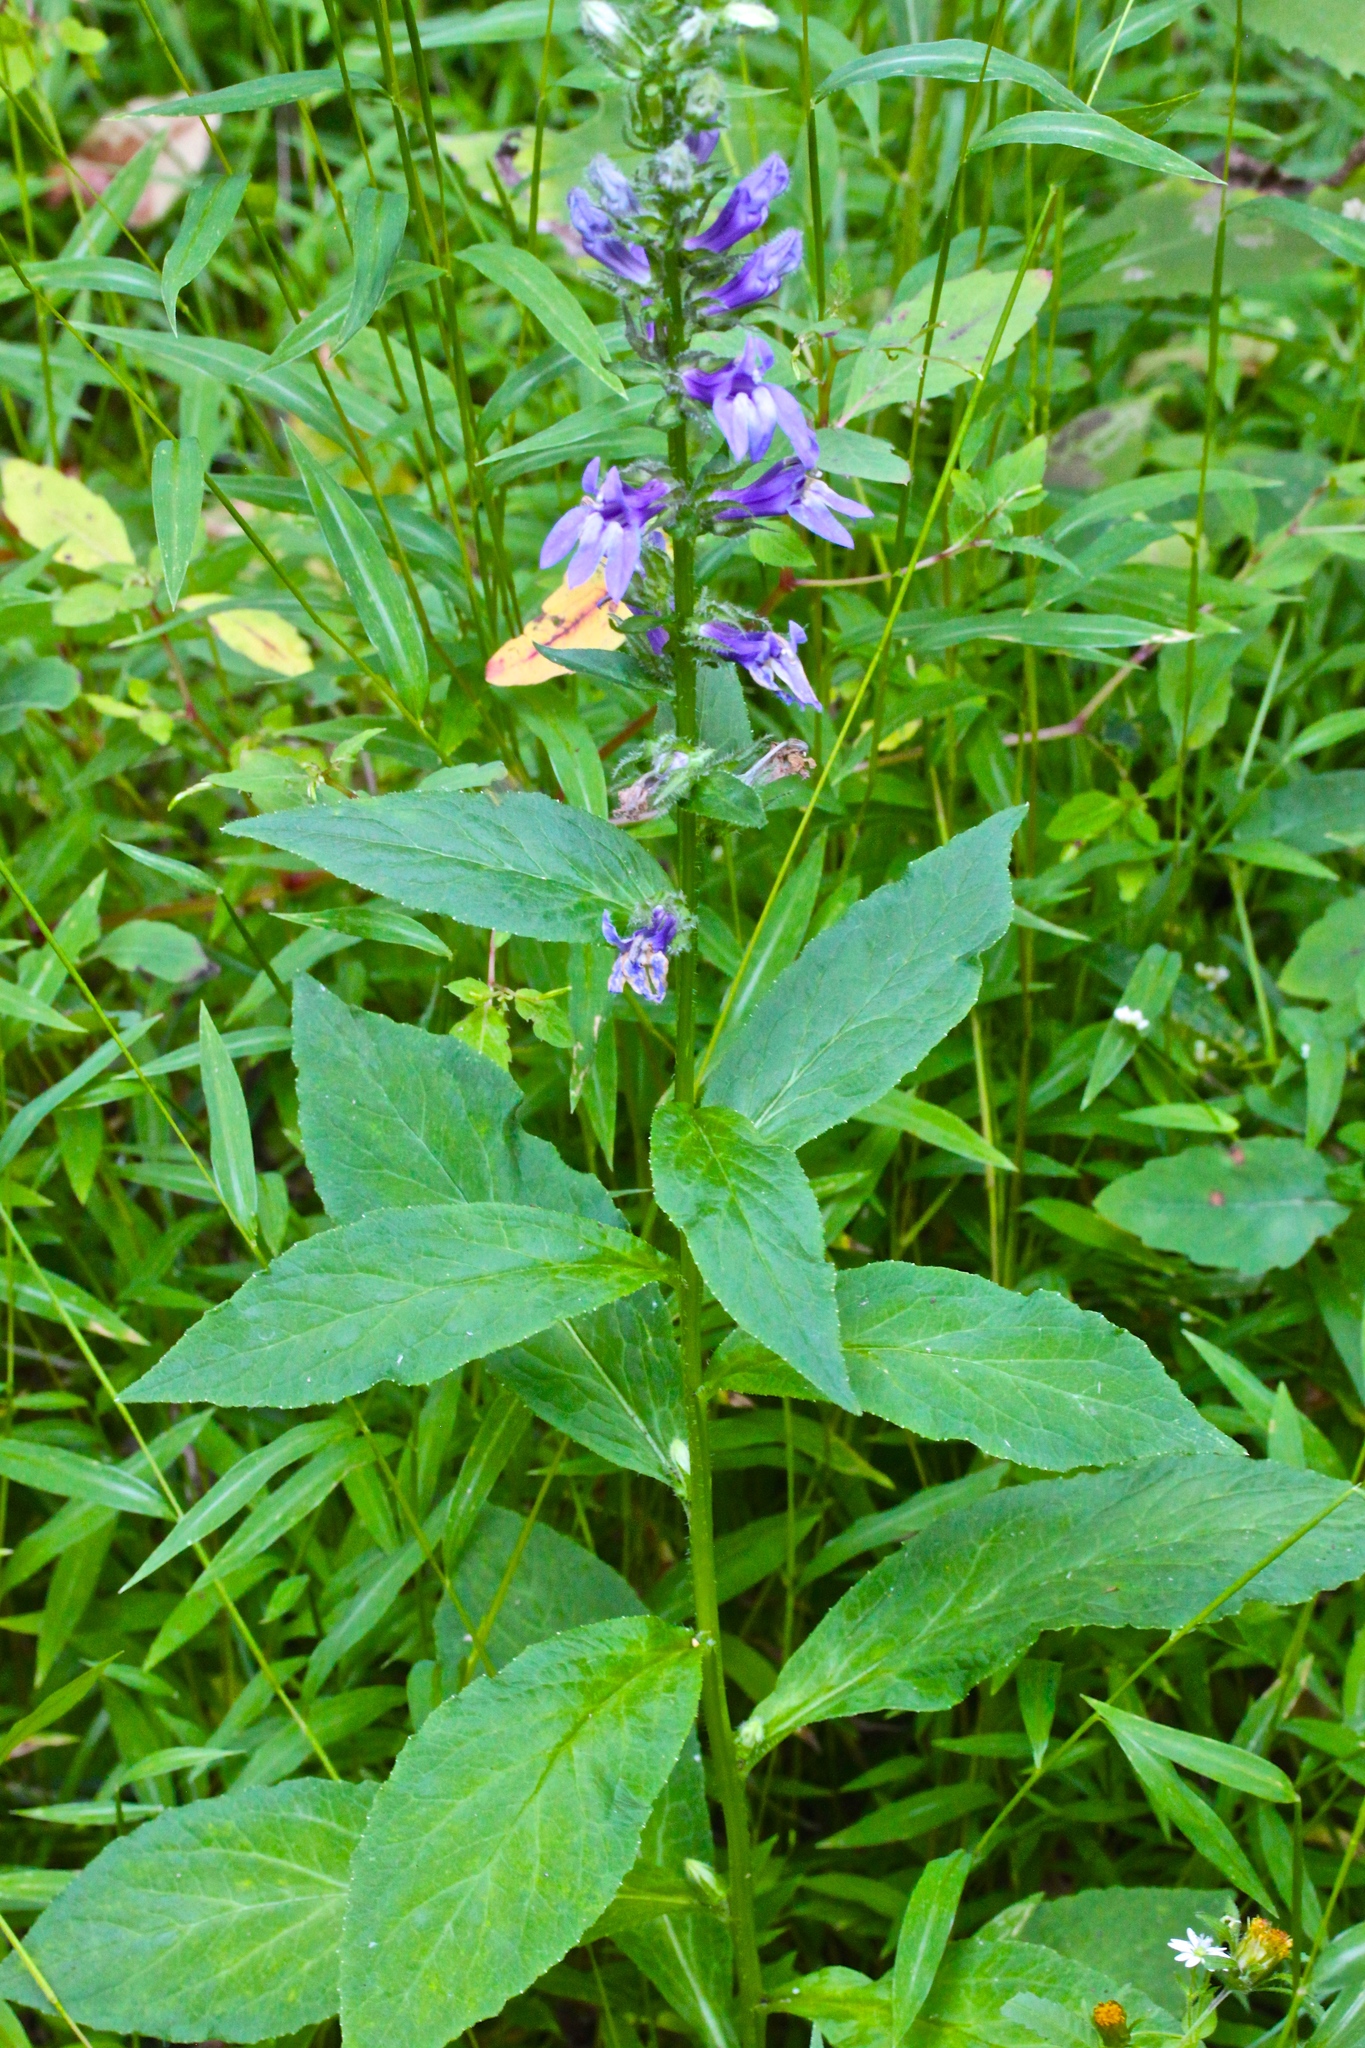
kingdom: Plantae
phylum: Tracheophyta
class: Magnoliopsida
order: Asterales
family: Campanulaceae
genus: Lobelia
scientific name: Lobelia siphilitica
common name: Great lobelia
